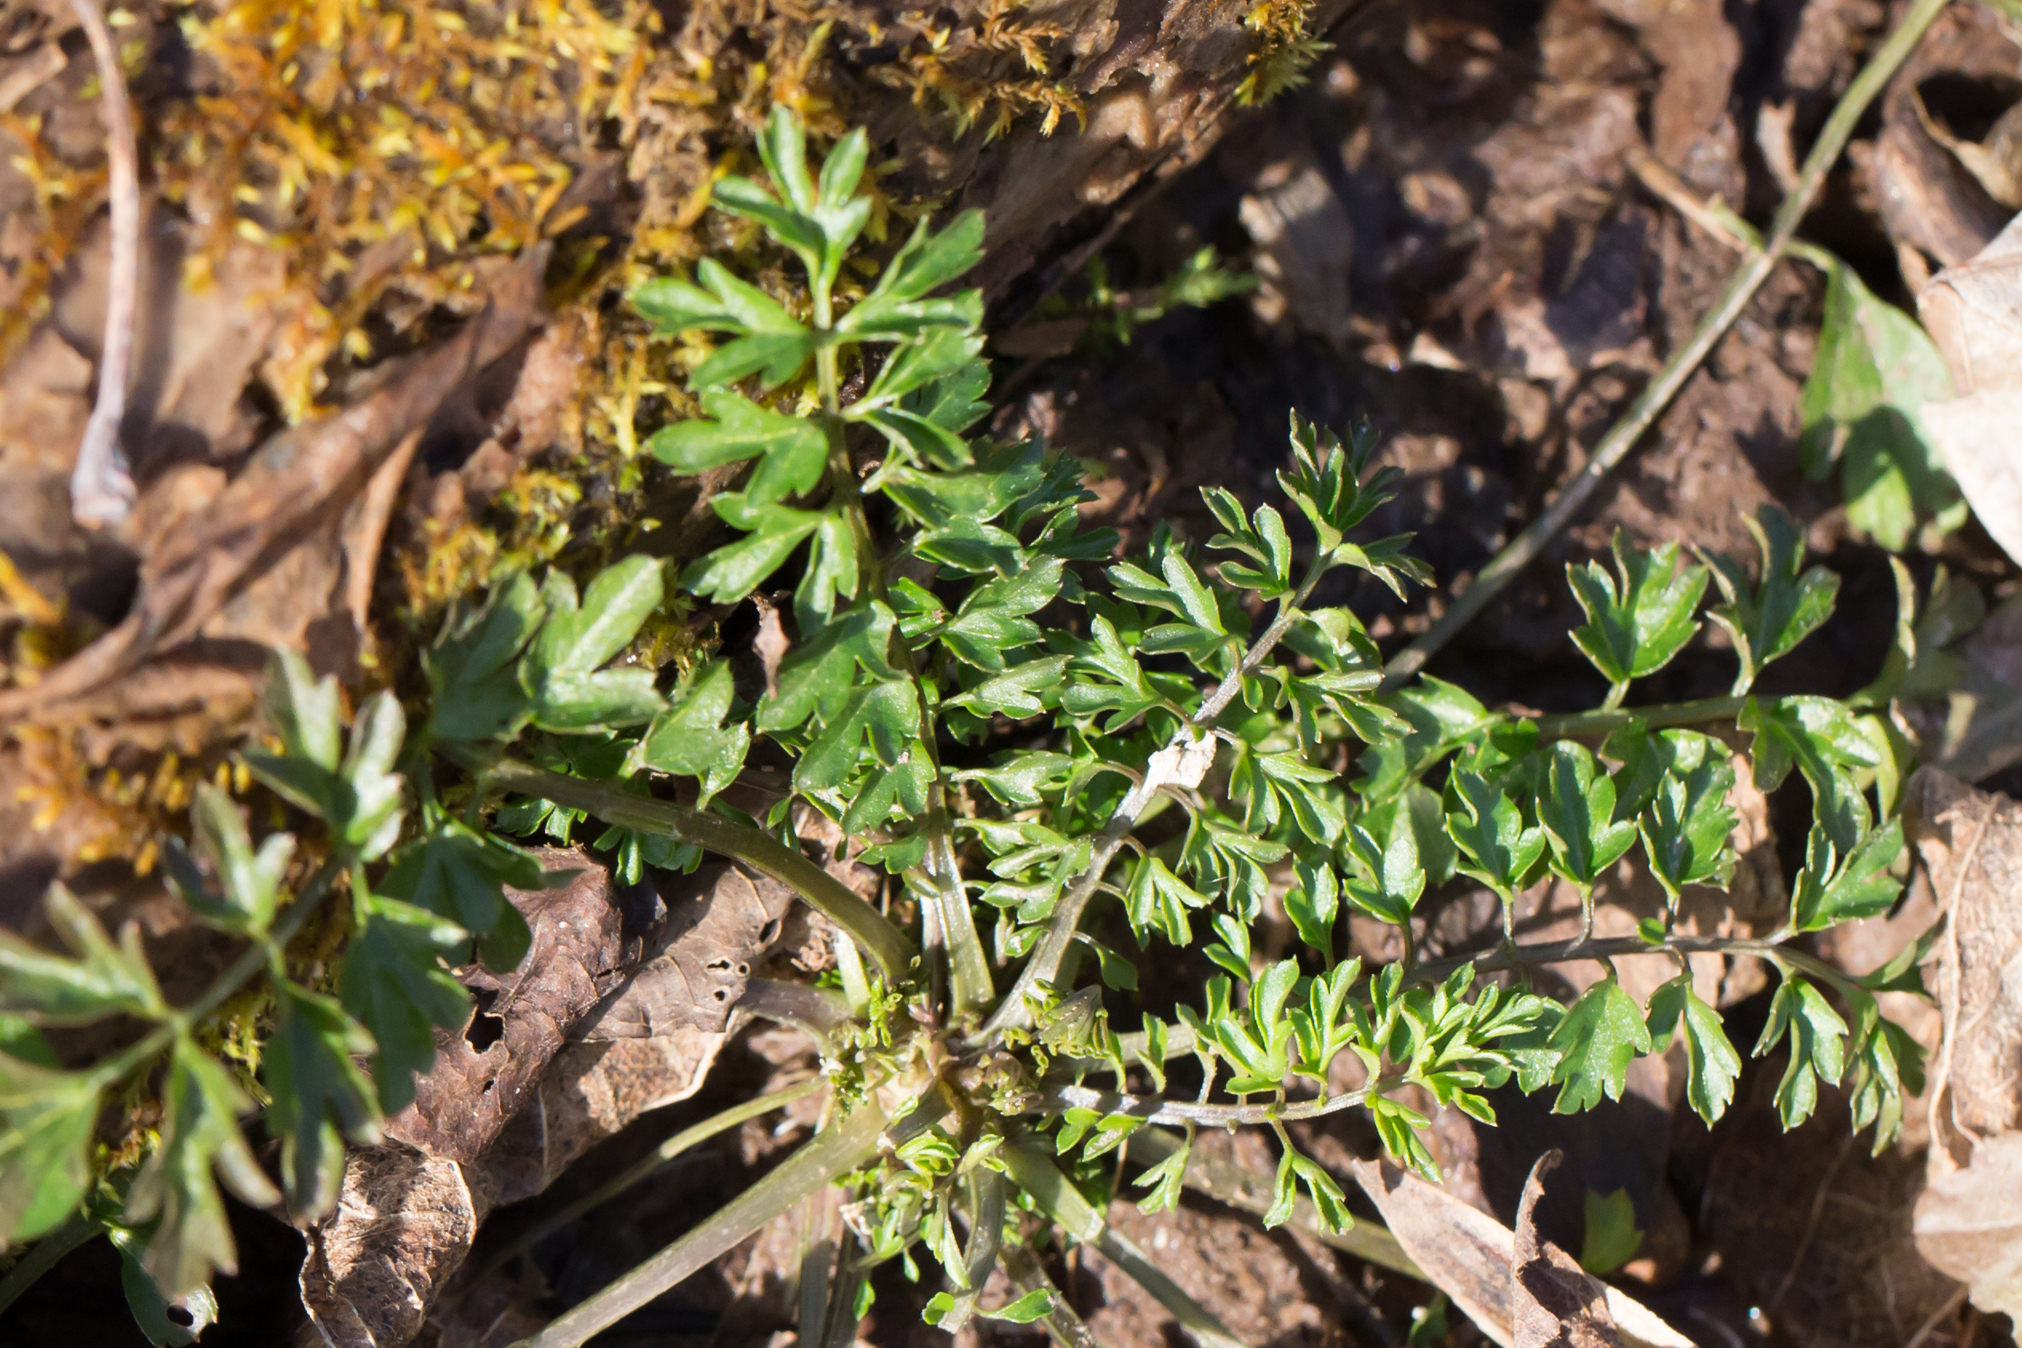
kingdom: Plantae
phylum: Tracheophyta
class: Magnoliopsida
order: Brassicales
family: Brassicaceae
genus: Cardamine
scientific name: Cardamine impatiens
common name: Narrow-leaved bitter-cress
